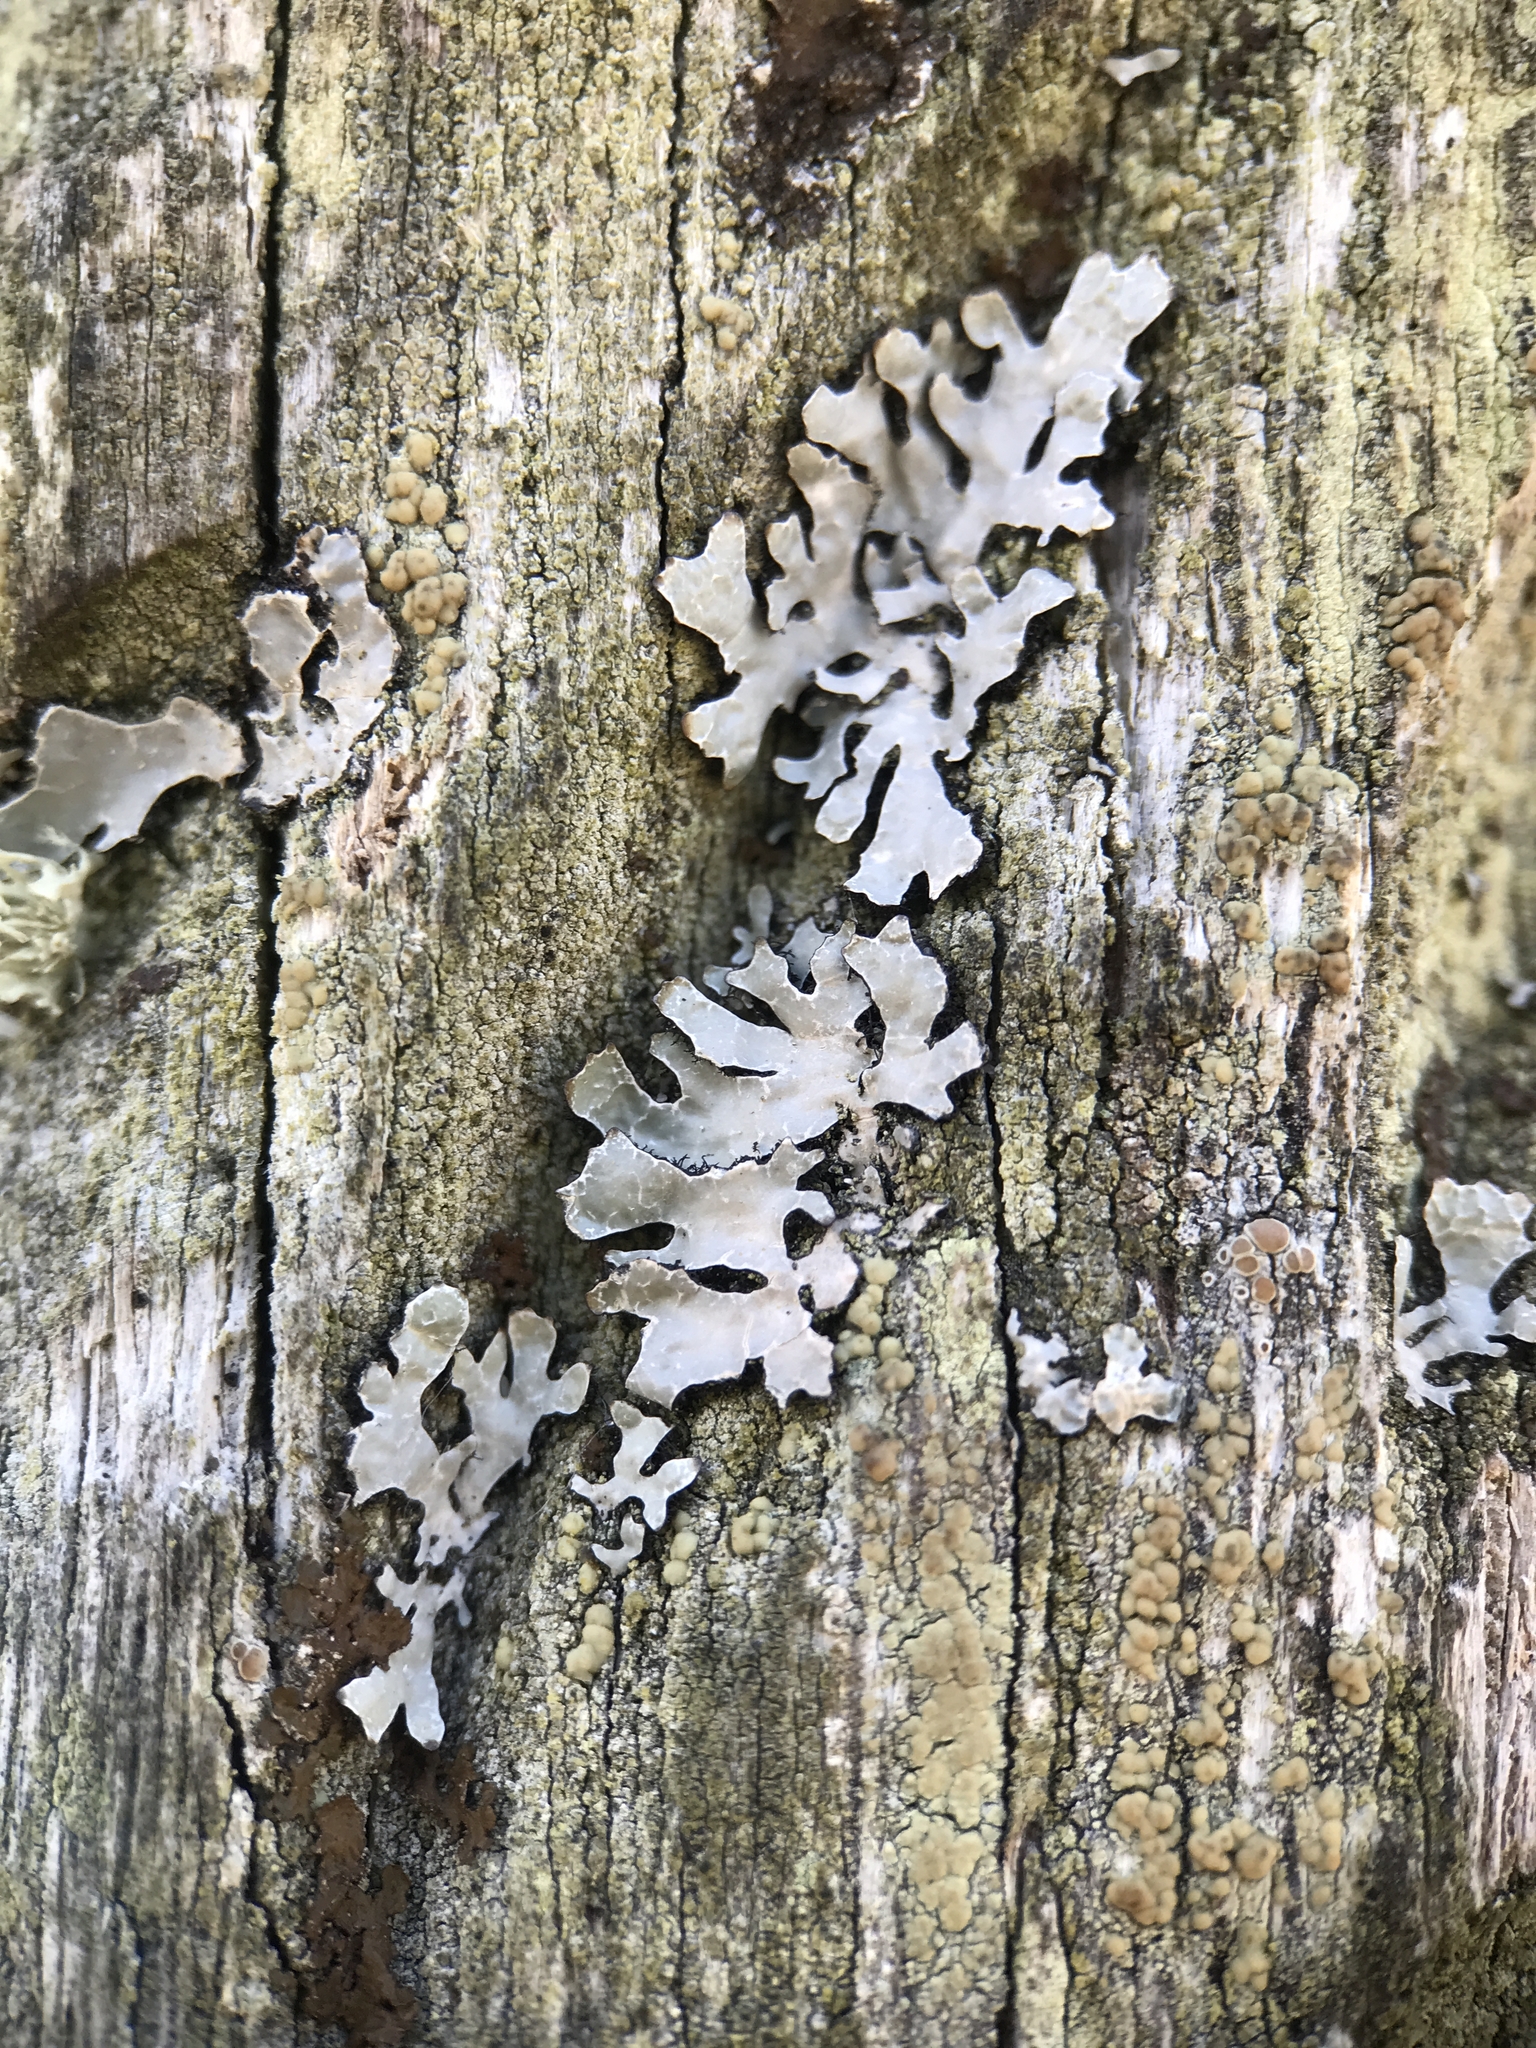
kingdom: Fungi
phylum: Ascomycota
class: Lecanoromycetes
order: Lecanorales
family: Parmeliaceae
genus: Parmelia
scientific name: Parmelia sulcata
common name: Netted shield lichen
